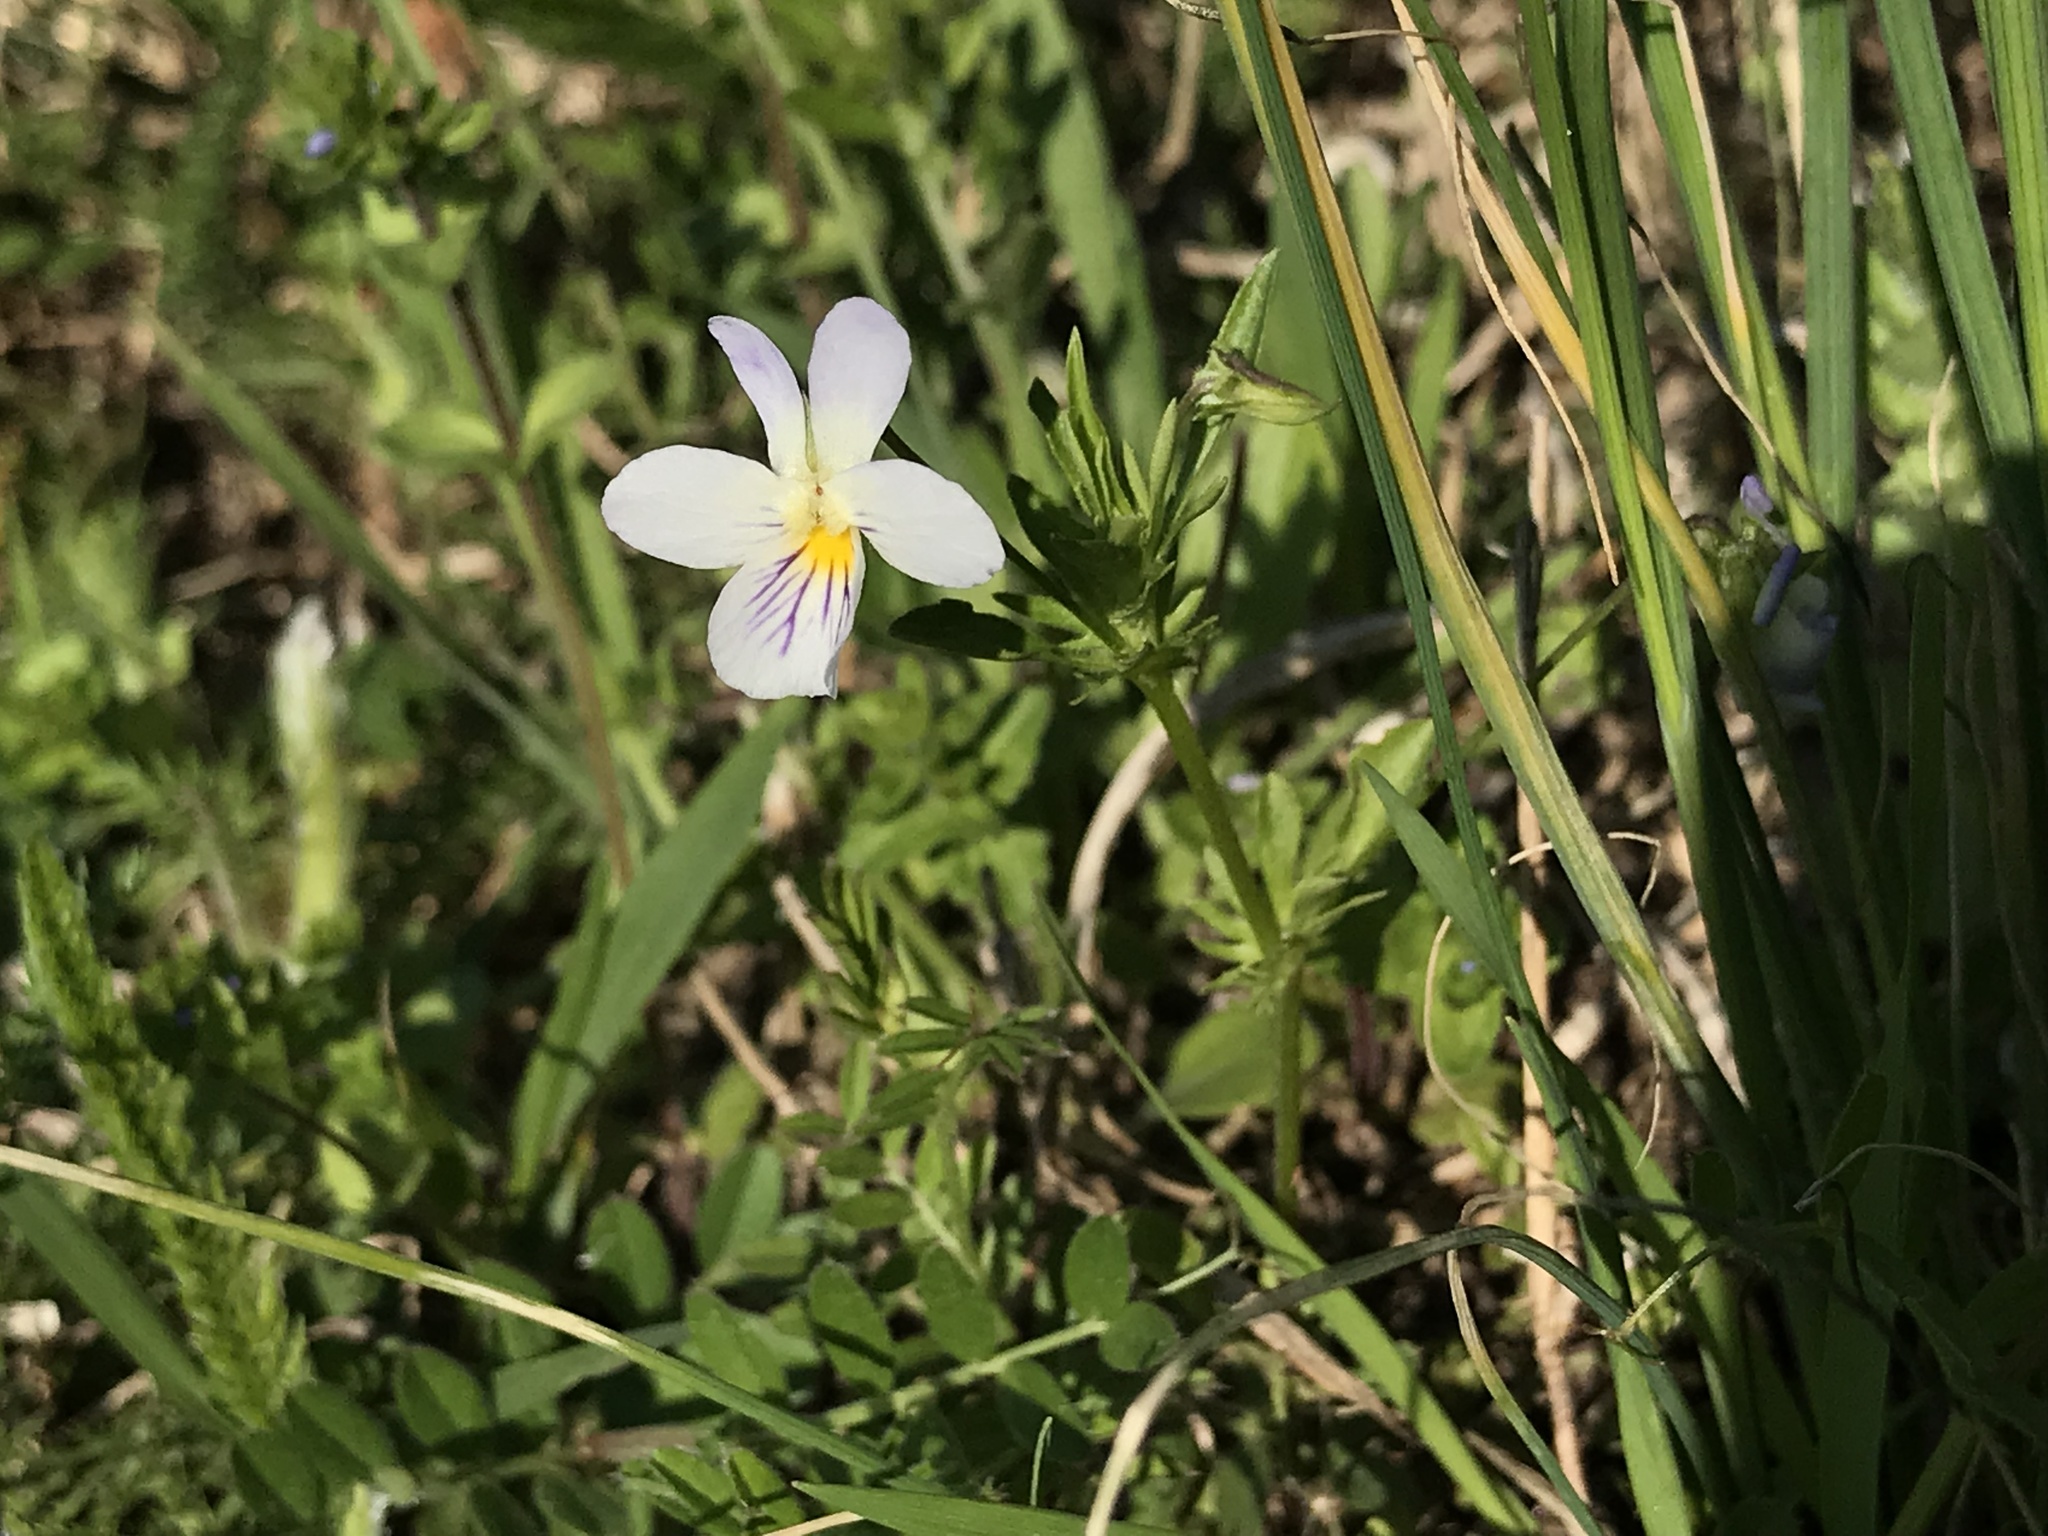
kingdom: Plantae
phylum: Tracheophyta
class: Magnoliopsida
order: Malpighiales
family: Violaceae
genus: Viola
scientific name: Viola rafinesquei
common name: American field pansy
